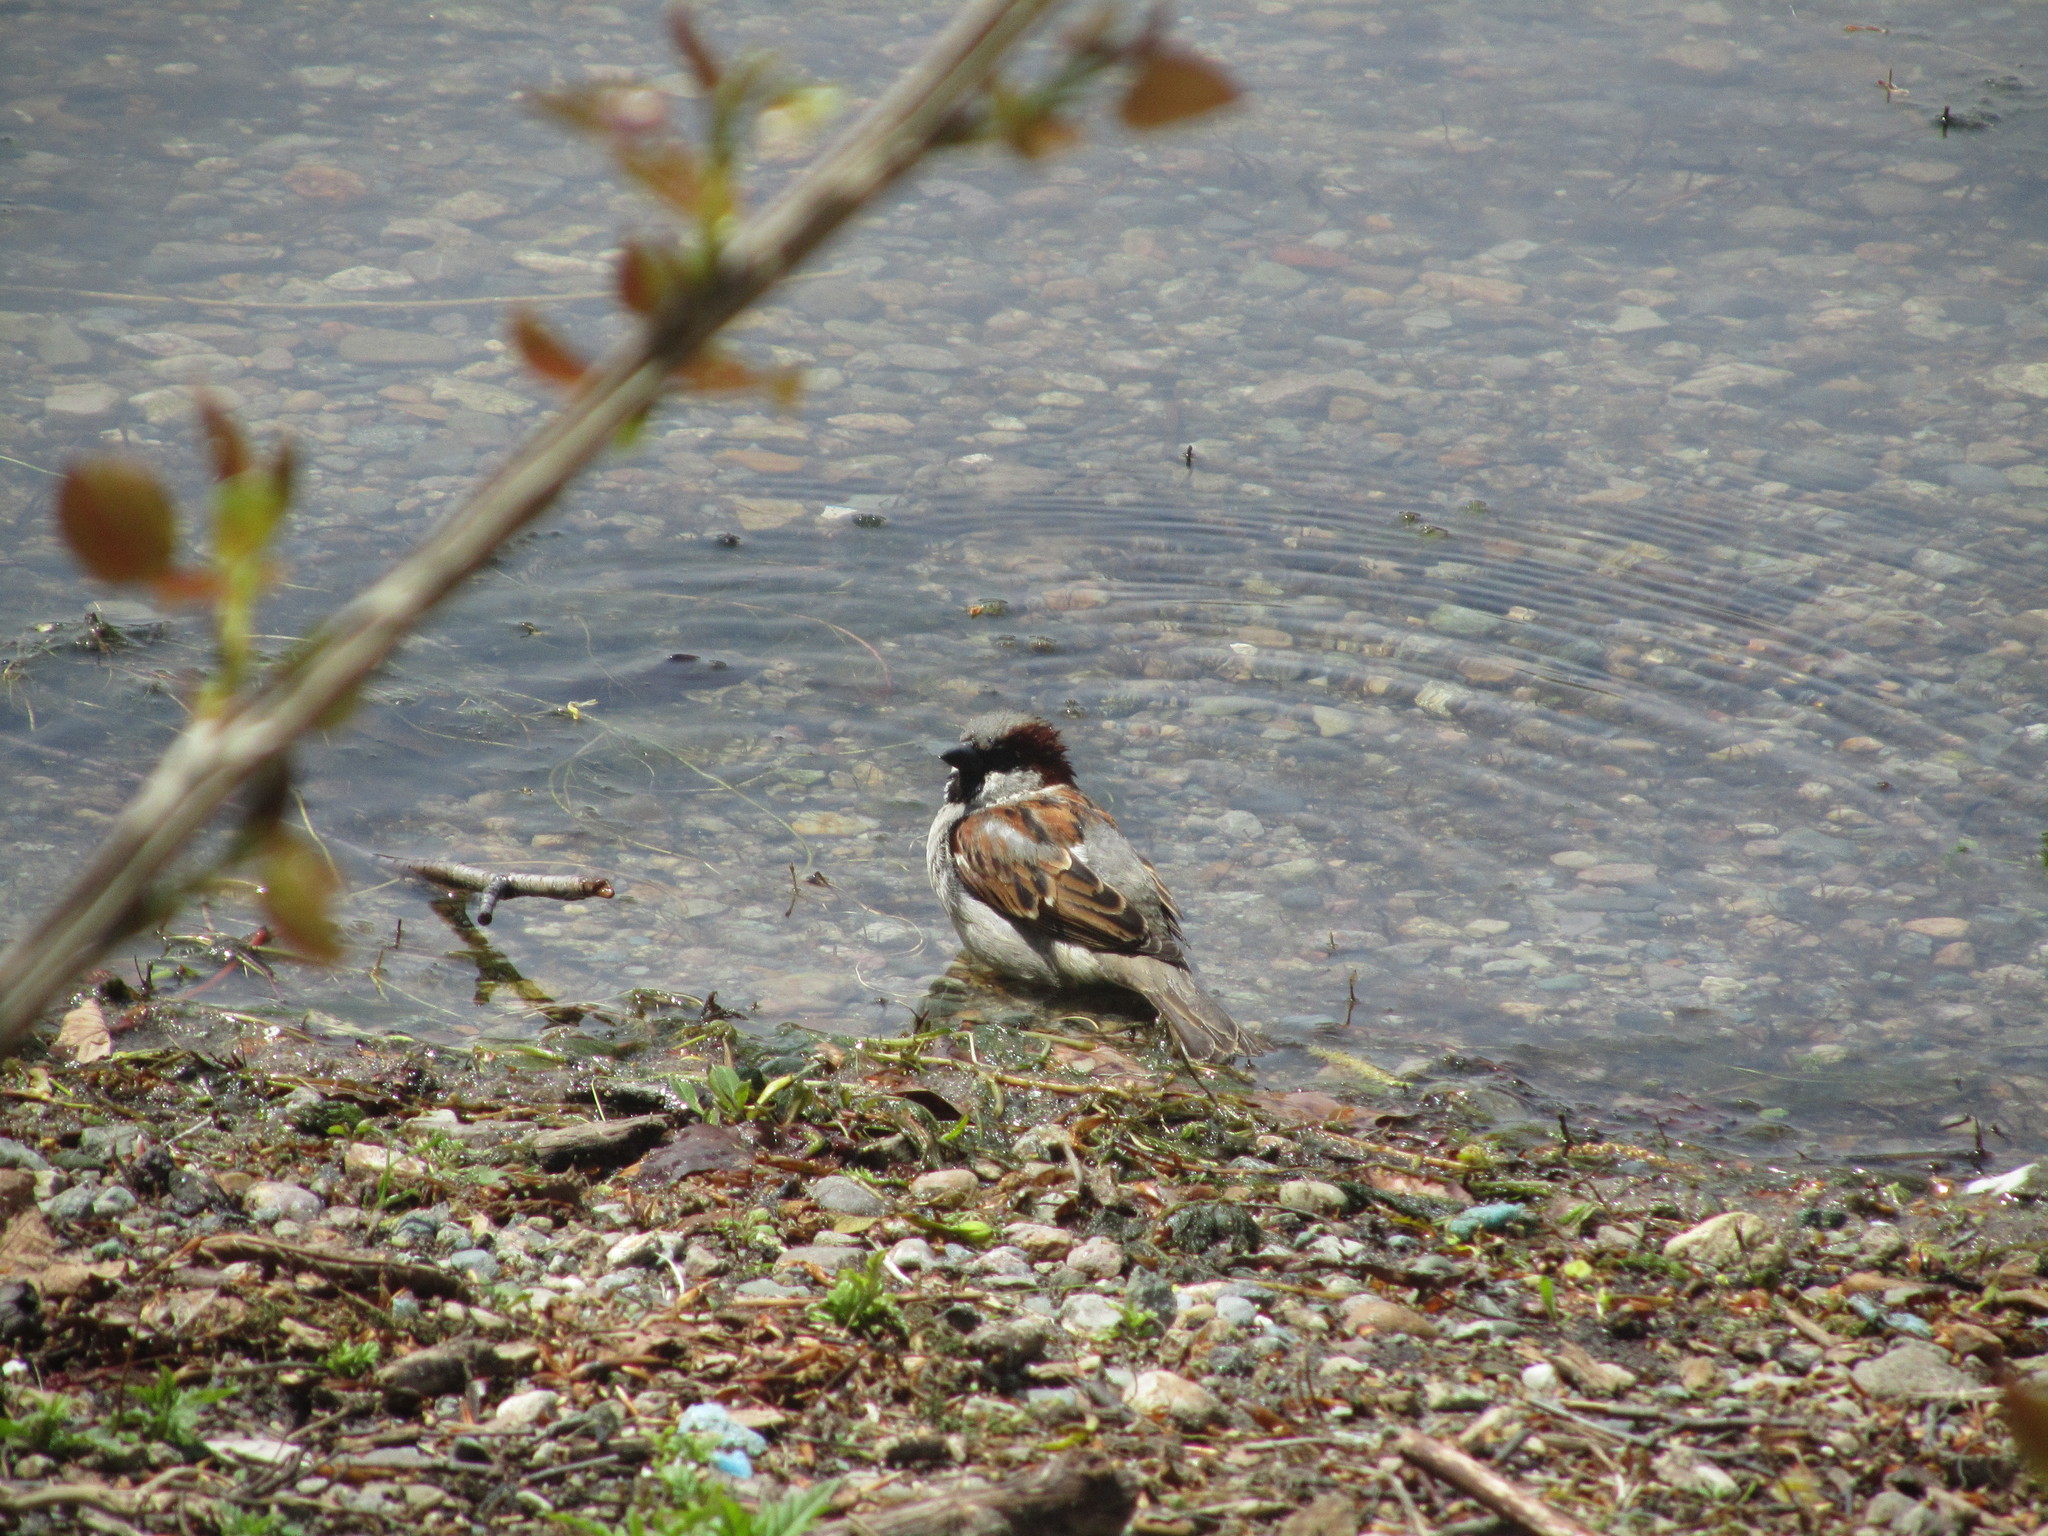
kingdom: Animalia
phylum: Chordata
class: Aves
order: Passeriformes
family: Passeridae
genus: Passer
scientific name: Passer domesticus
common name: House sparrow
